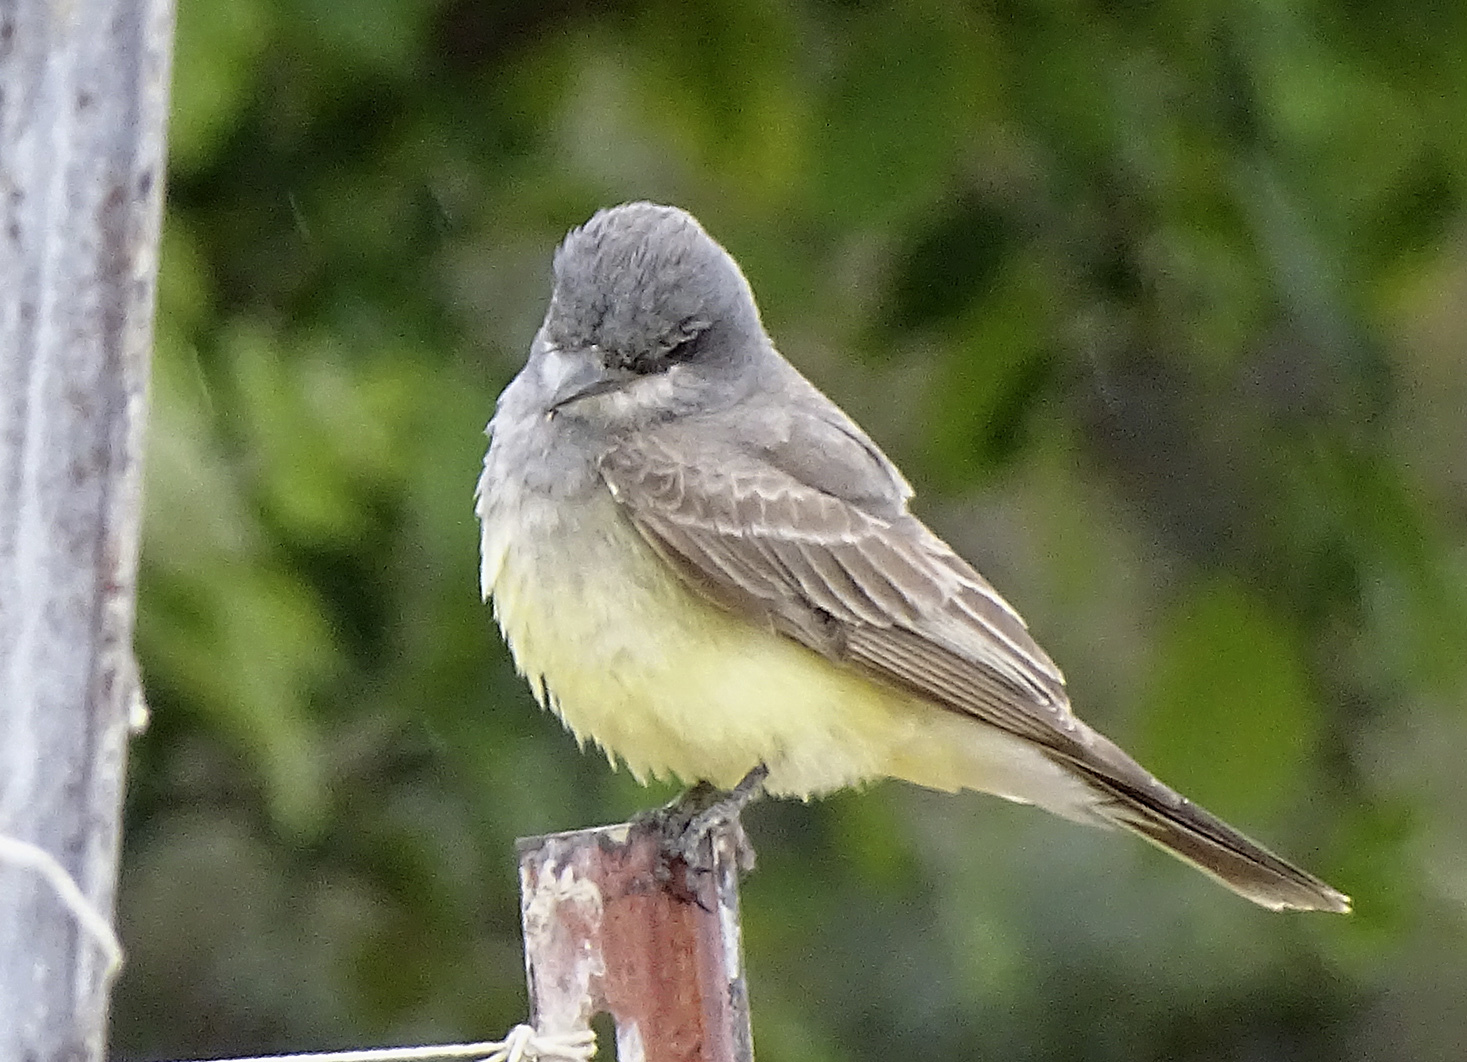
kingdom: Animalia
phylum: Chordata
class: Aves
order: Passeriformes
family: Tyrannidae
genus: Tyrannus
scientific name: Tyrannus vociferans
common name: Cassin's kingbird
